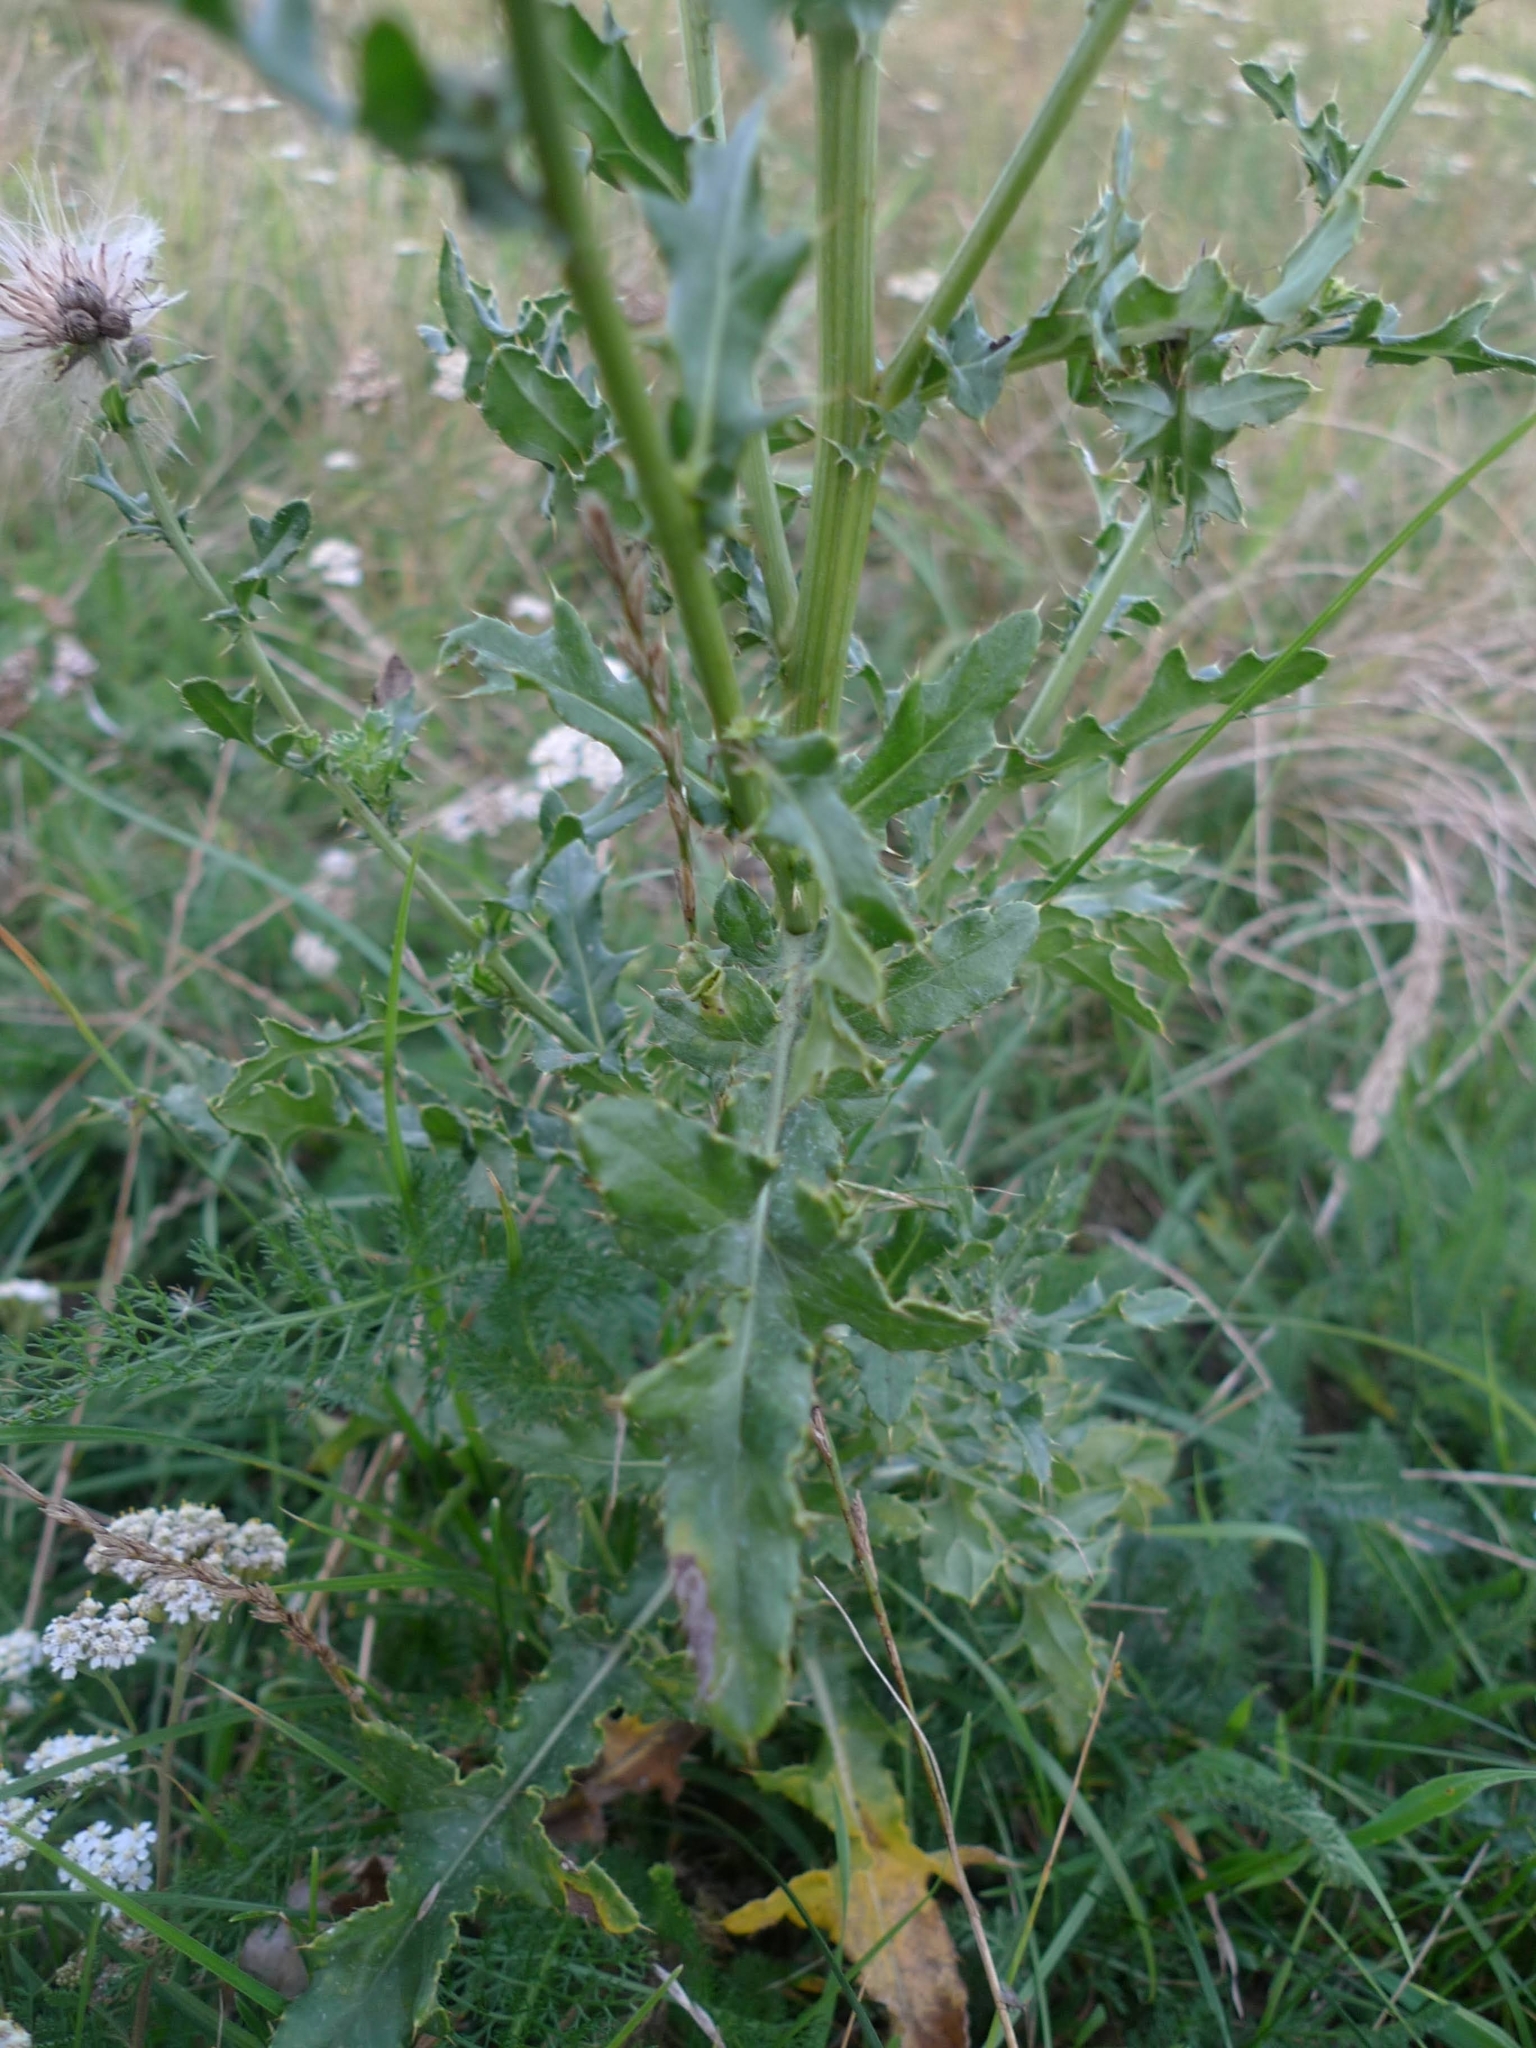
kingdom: Plantae
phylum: Tracheophyta
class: Magnoliopsida
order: Asterales
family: Asteraceae
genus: Cirsium
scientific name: Cirsium arvense
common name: Creeping thistle
